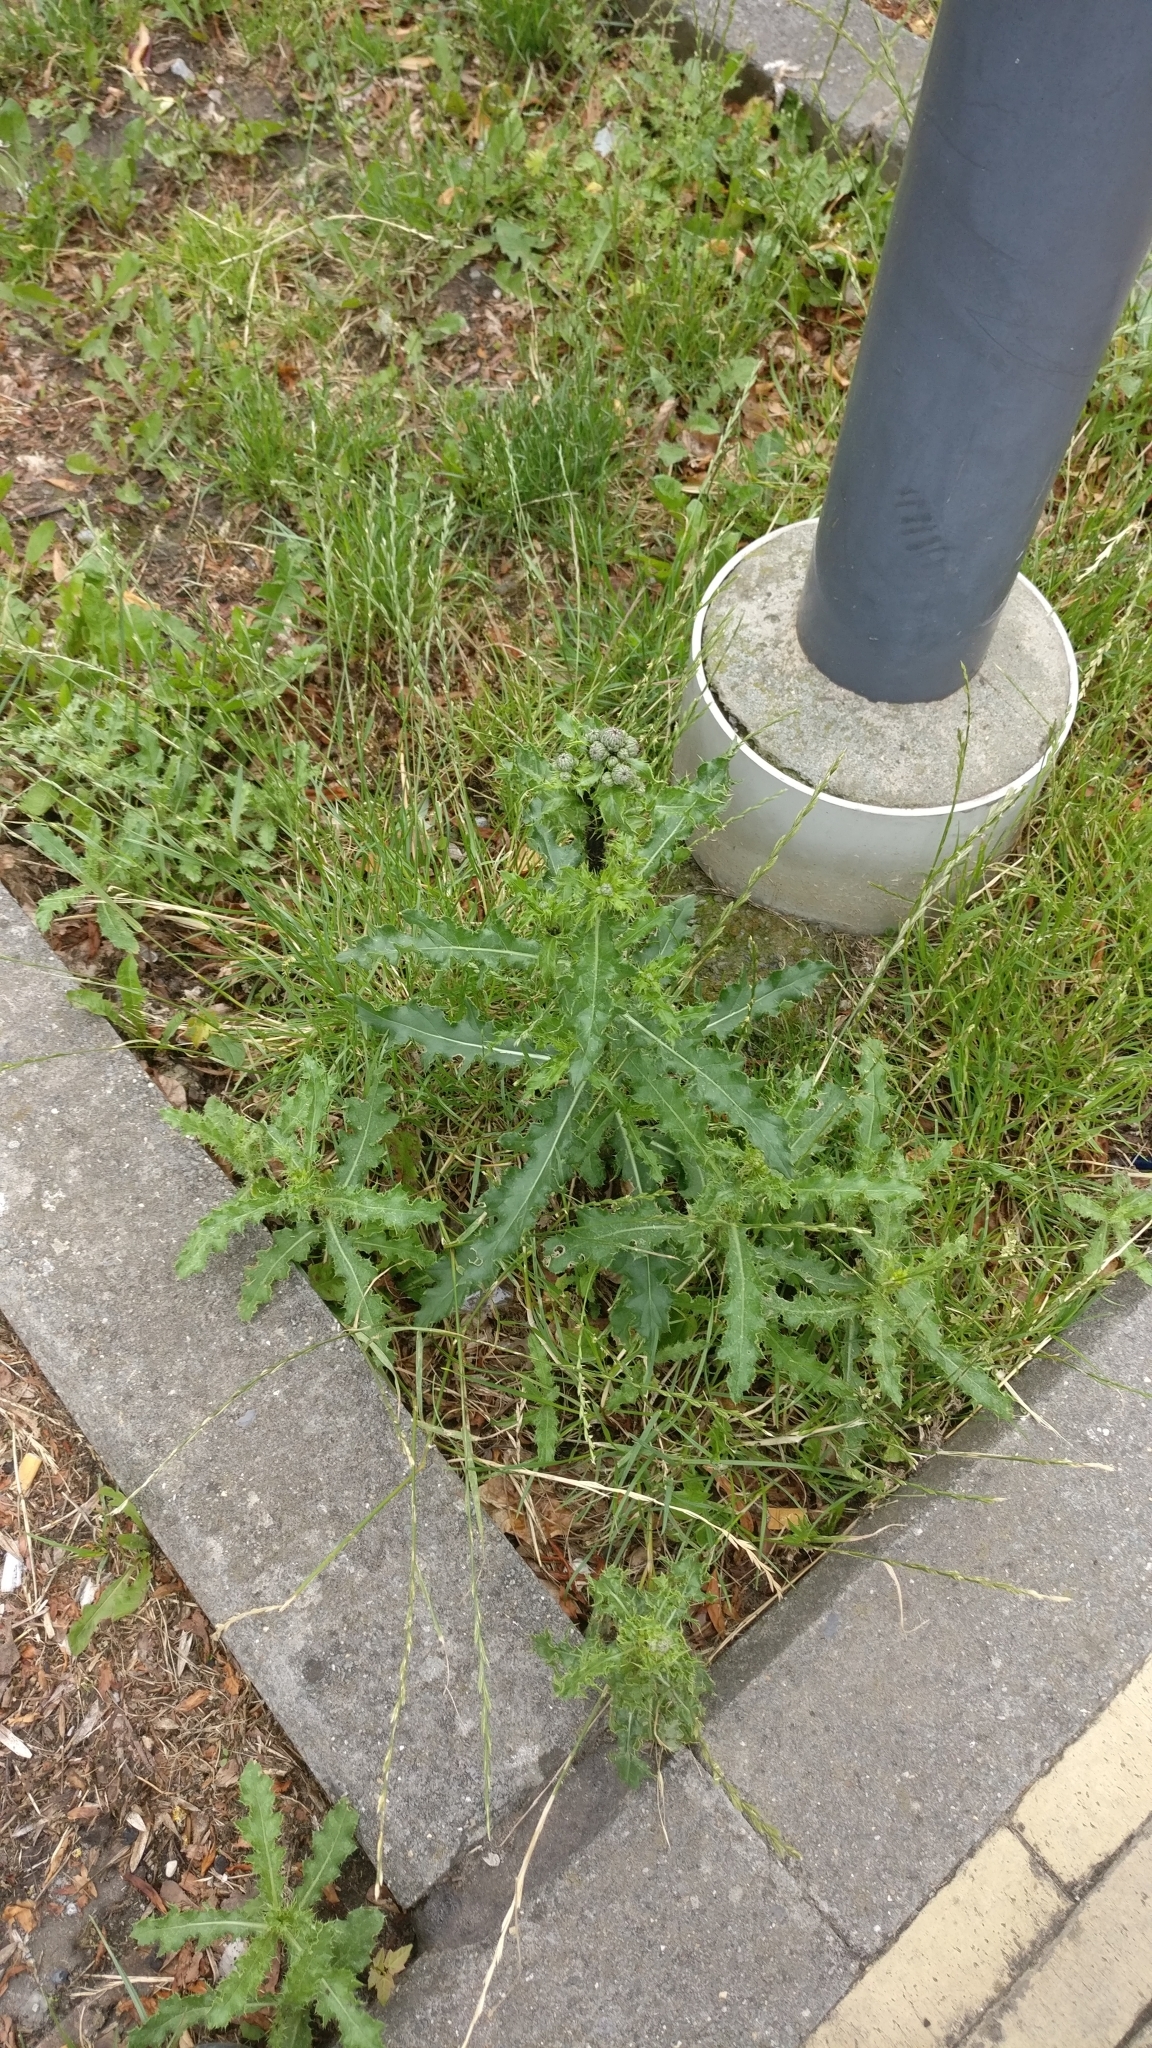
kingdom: Plantae
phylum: Tracheophyta
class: Magnoliopsida
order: Asterales
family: Asteraceae
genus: Cirsium
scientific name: Cirsium arvense
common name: Creeping thistle
